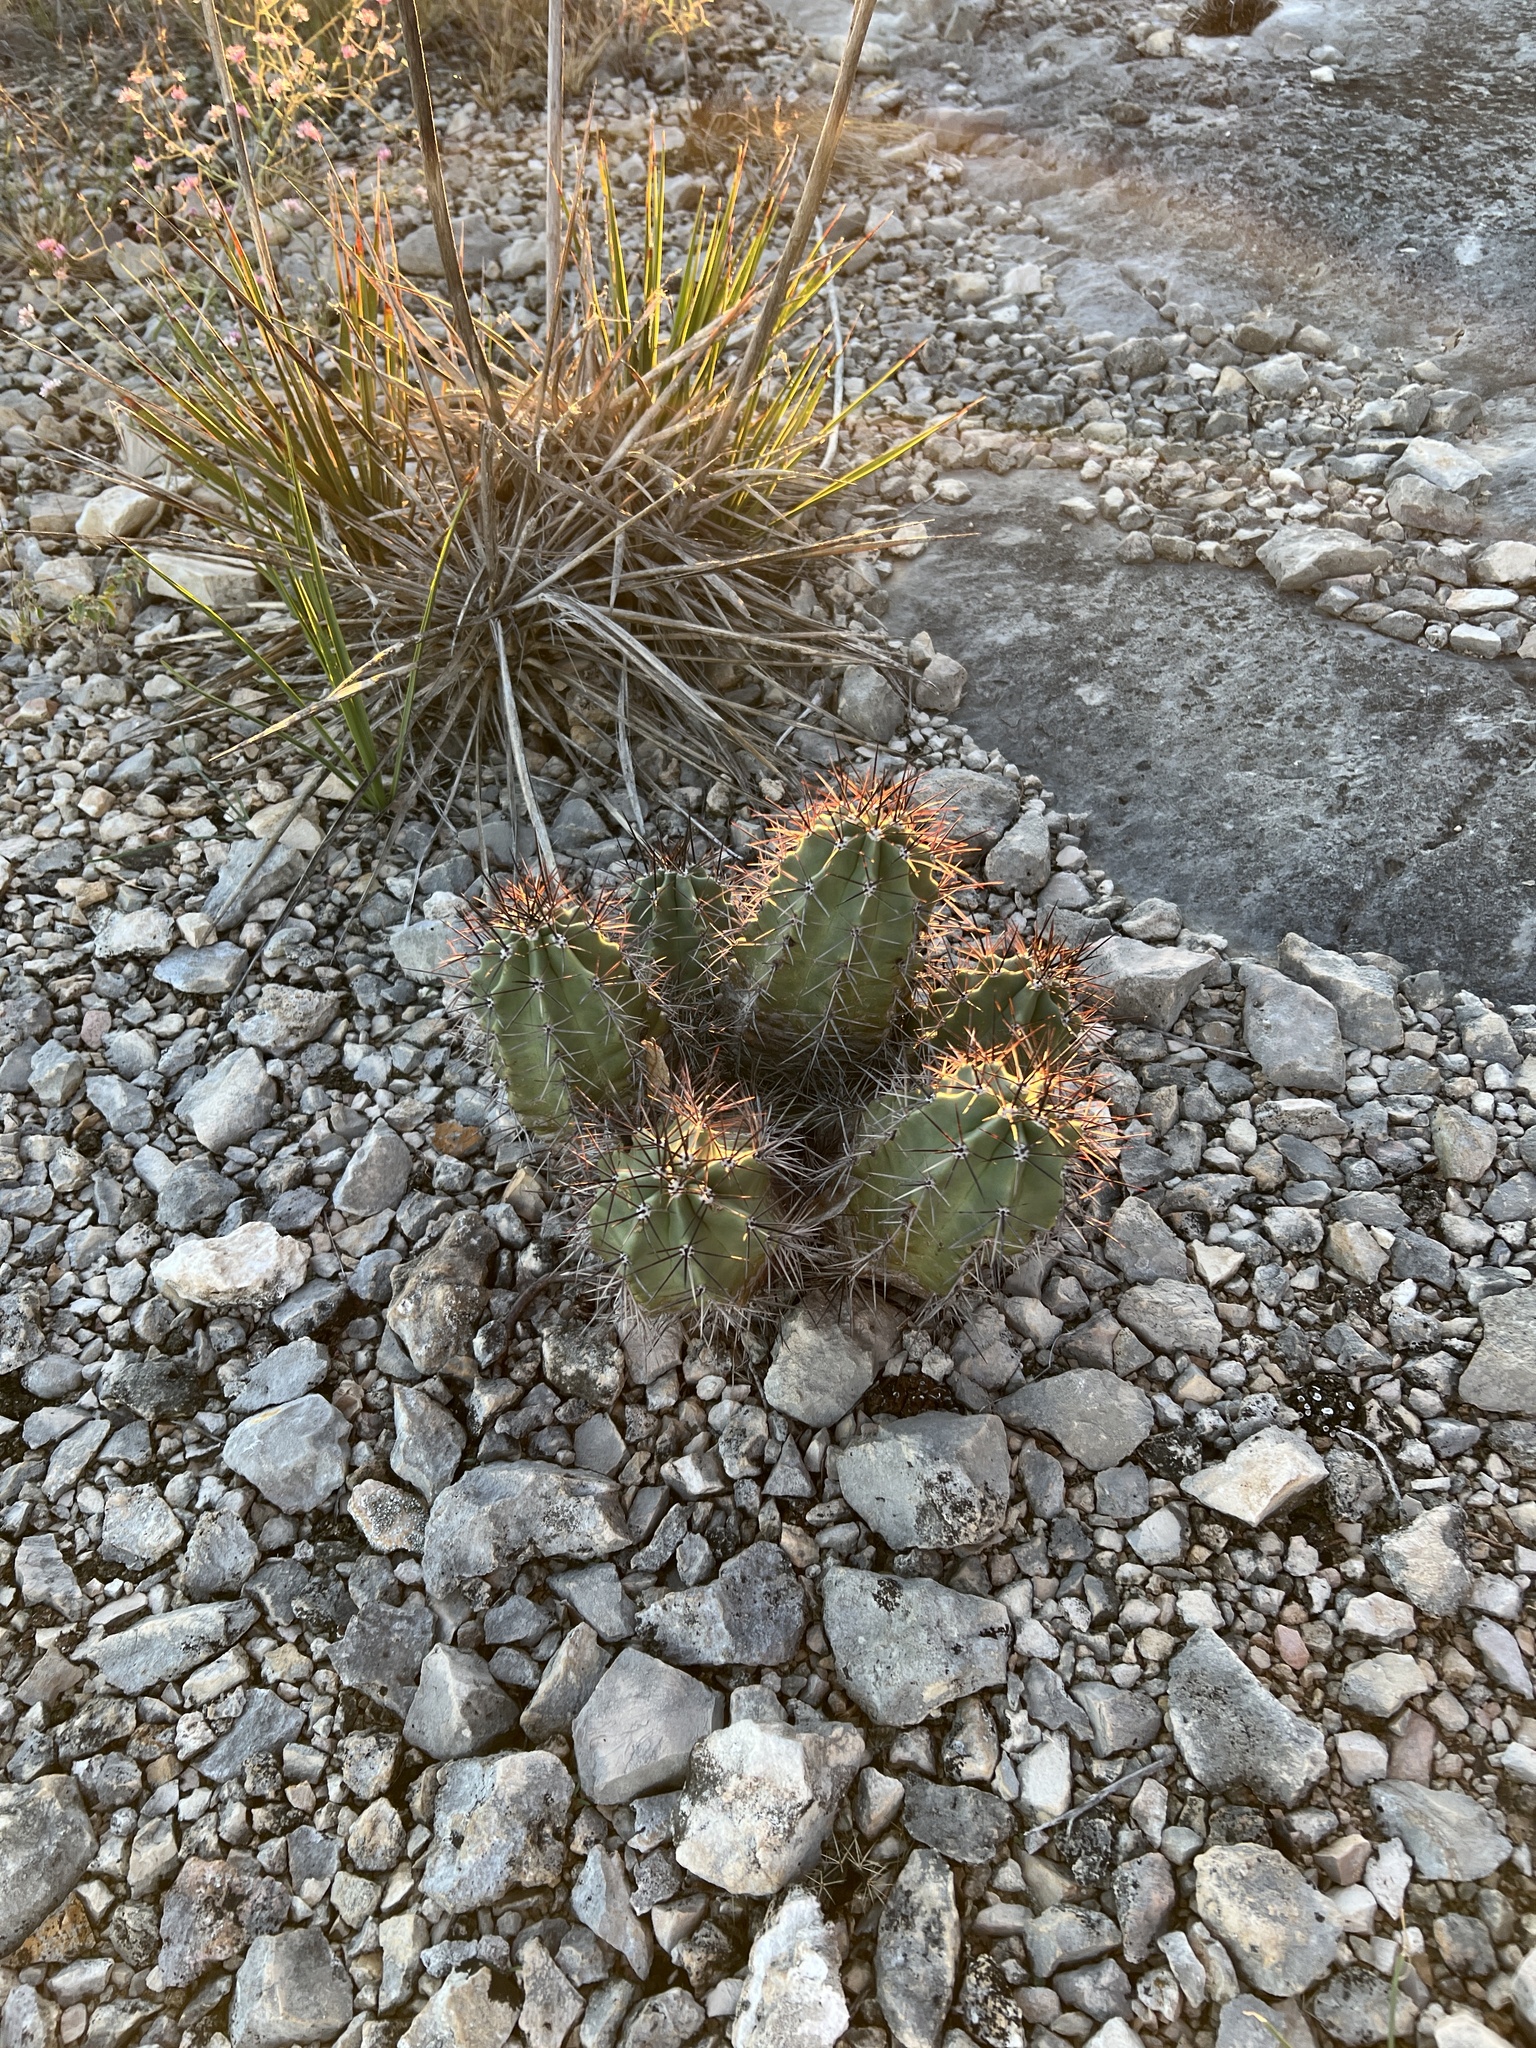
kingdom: Plantae
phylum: Tracheophyta
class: Magnoliopsida
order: Caryophyllales
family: Cactaceae
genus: Echinocereus
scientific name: Echinocereus coccineus
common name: Scarlet hedgehog cactus
